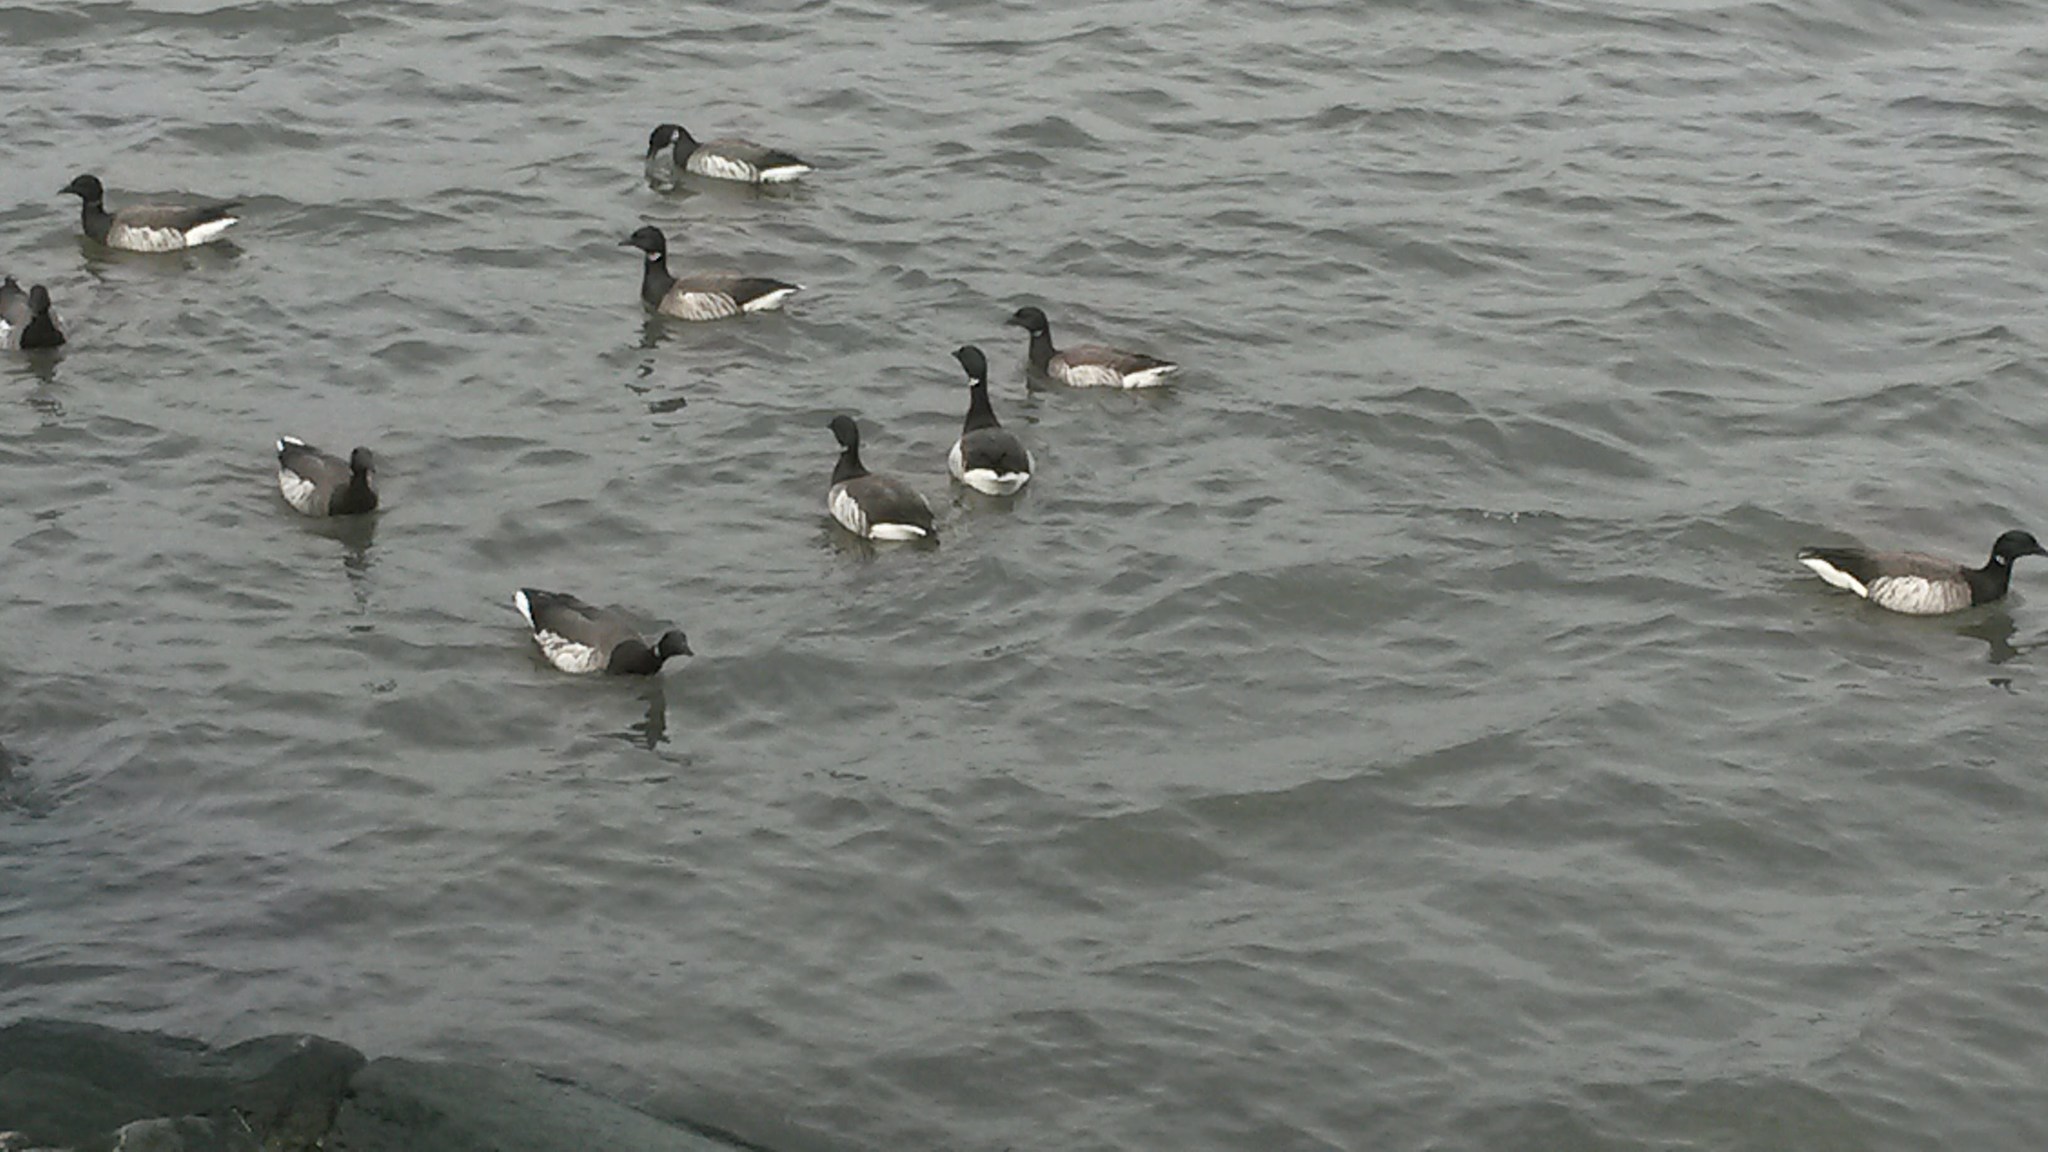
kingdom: Animalia
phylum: Chordata
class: Aves
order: Anseriformes
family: Anatidae
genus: Branta
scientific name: Branta bernicla
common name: Brant goose
